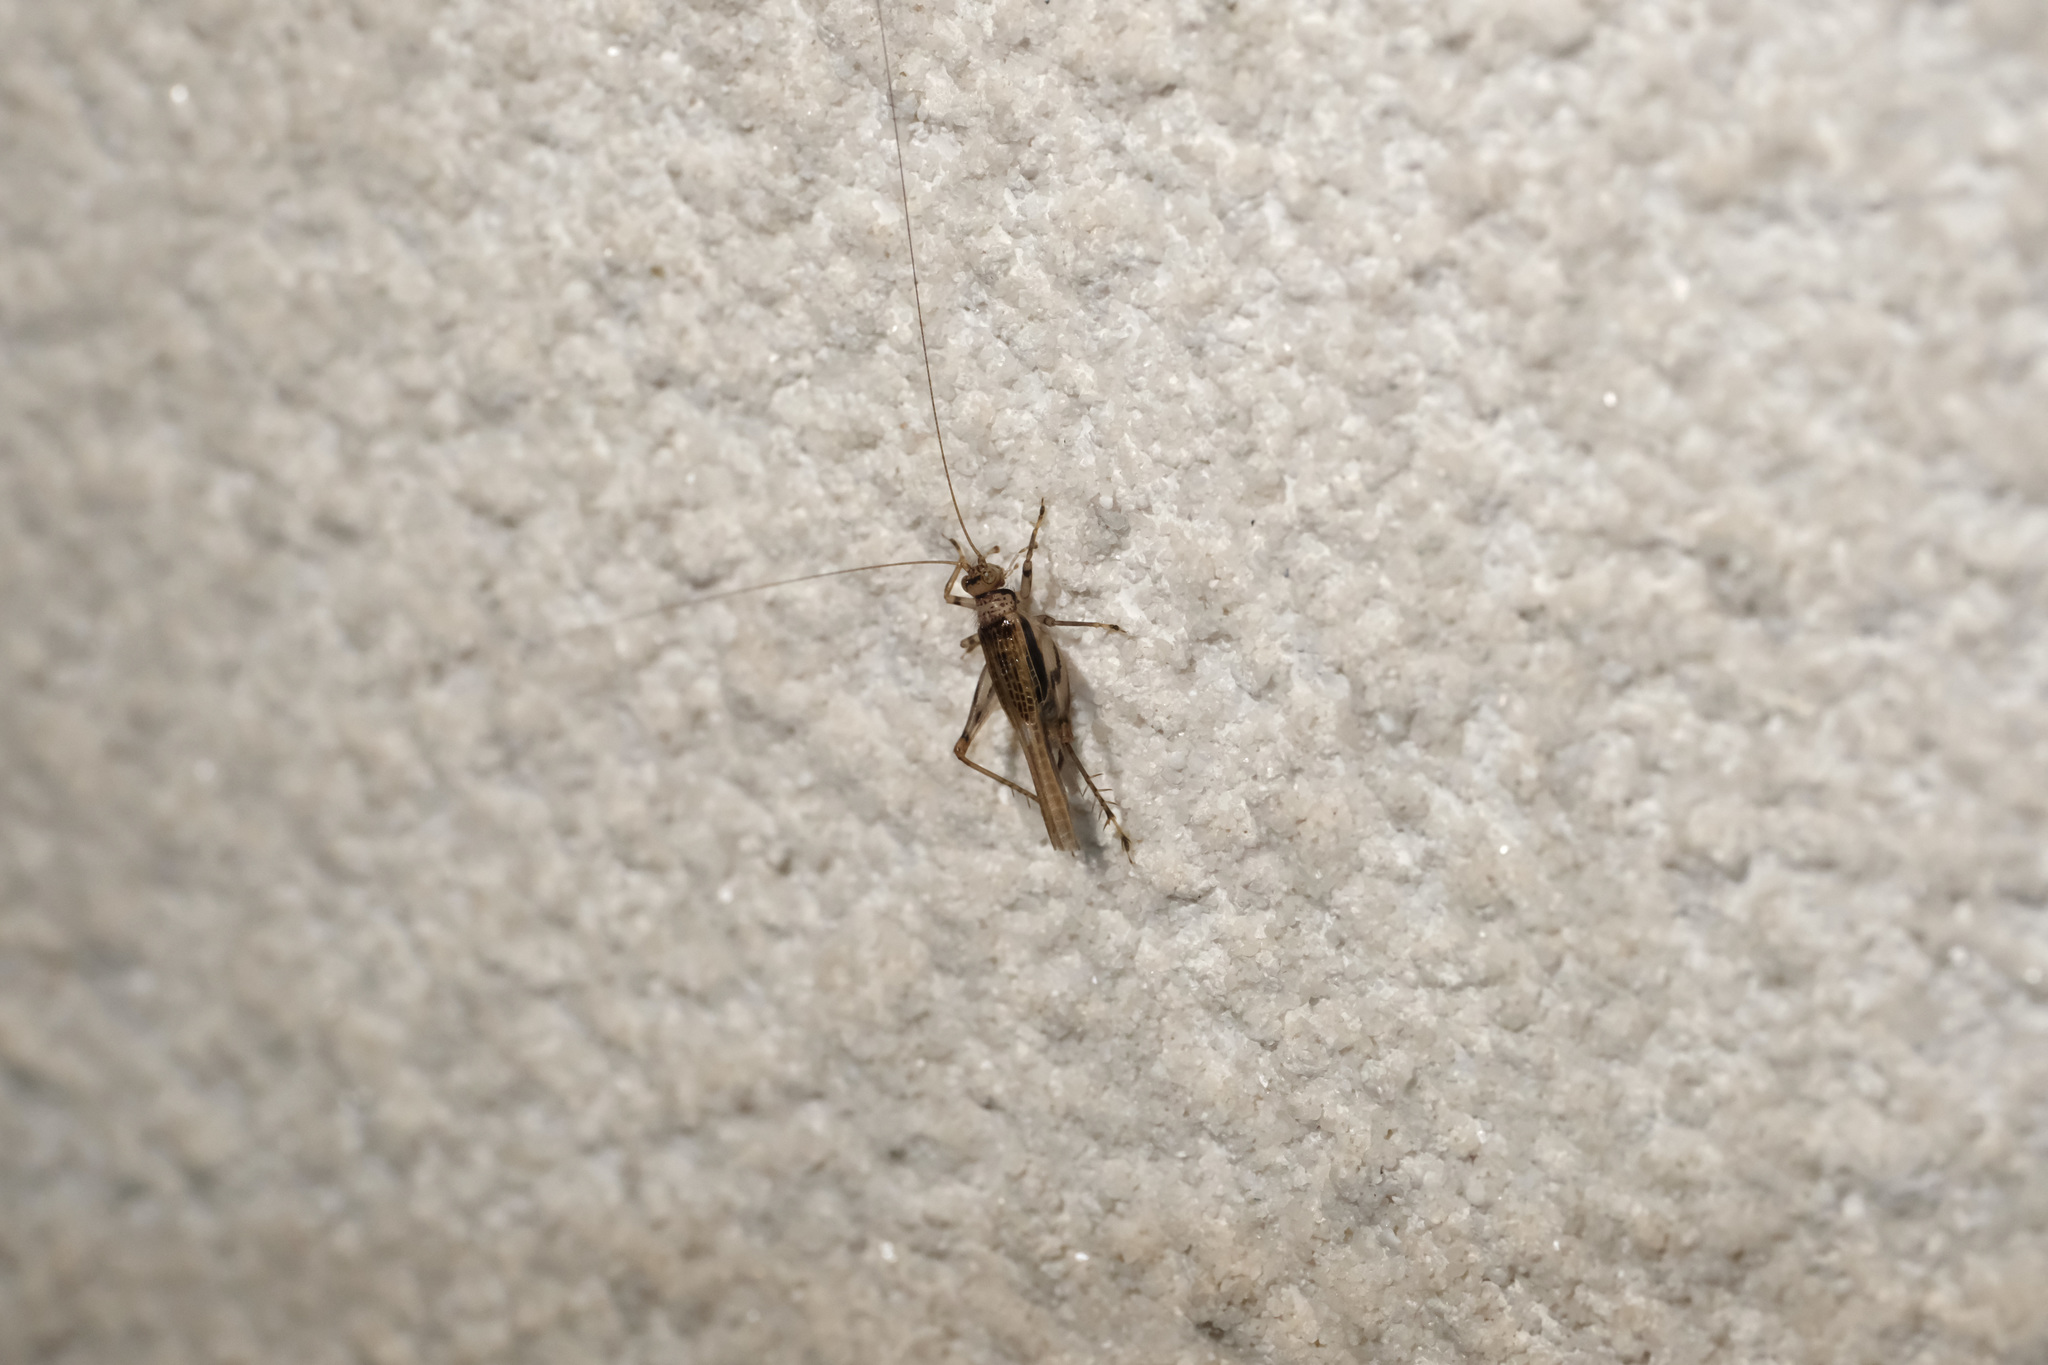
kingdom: Animalia
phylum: Arthropoda
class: Insecta
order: Orthoptera
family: Trigonidiidae
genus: Svistella
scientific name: Svistella bifasciata
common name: Gold bell
